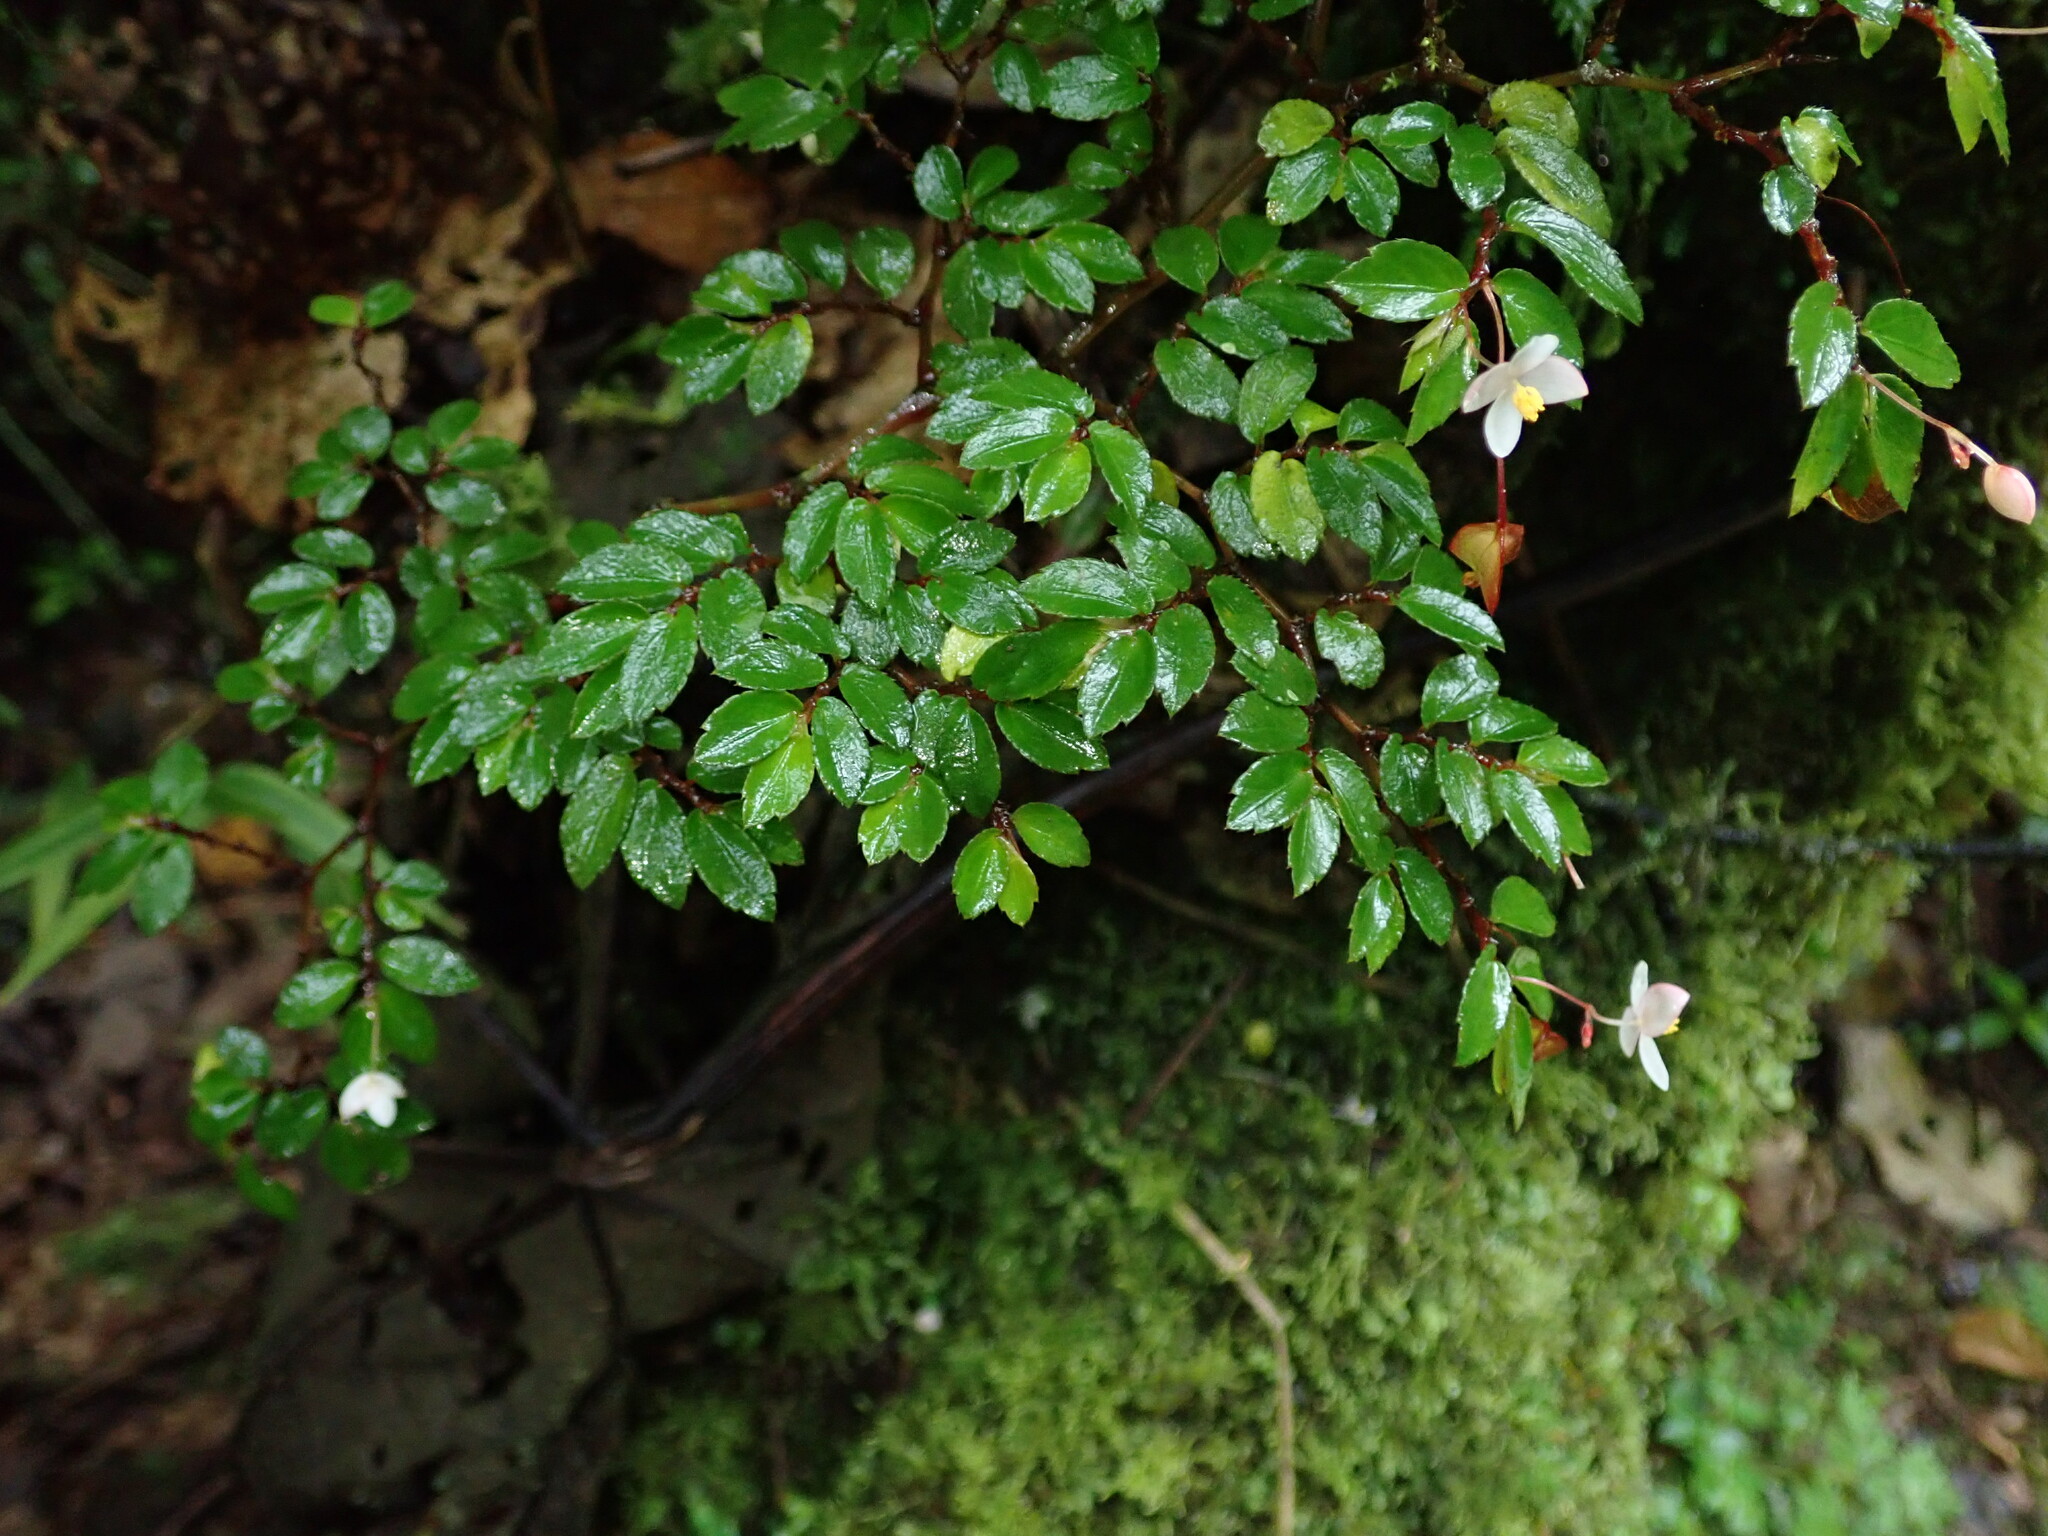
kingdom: Plantae
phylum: Tracheophyta
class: Magnoliopsida
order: Cucurbitales
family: Begoniaceae
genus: Begonia
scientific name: Begonia foliosa
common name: Fern begonia
